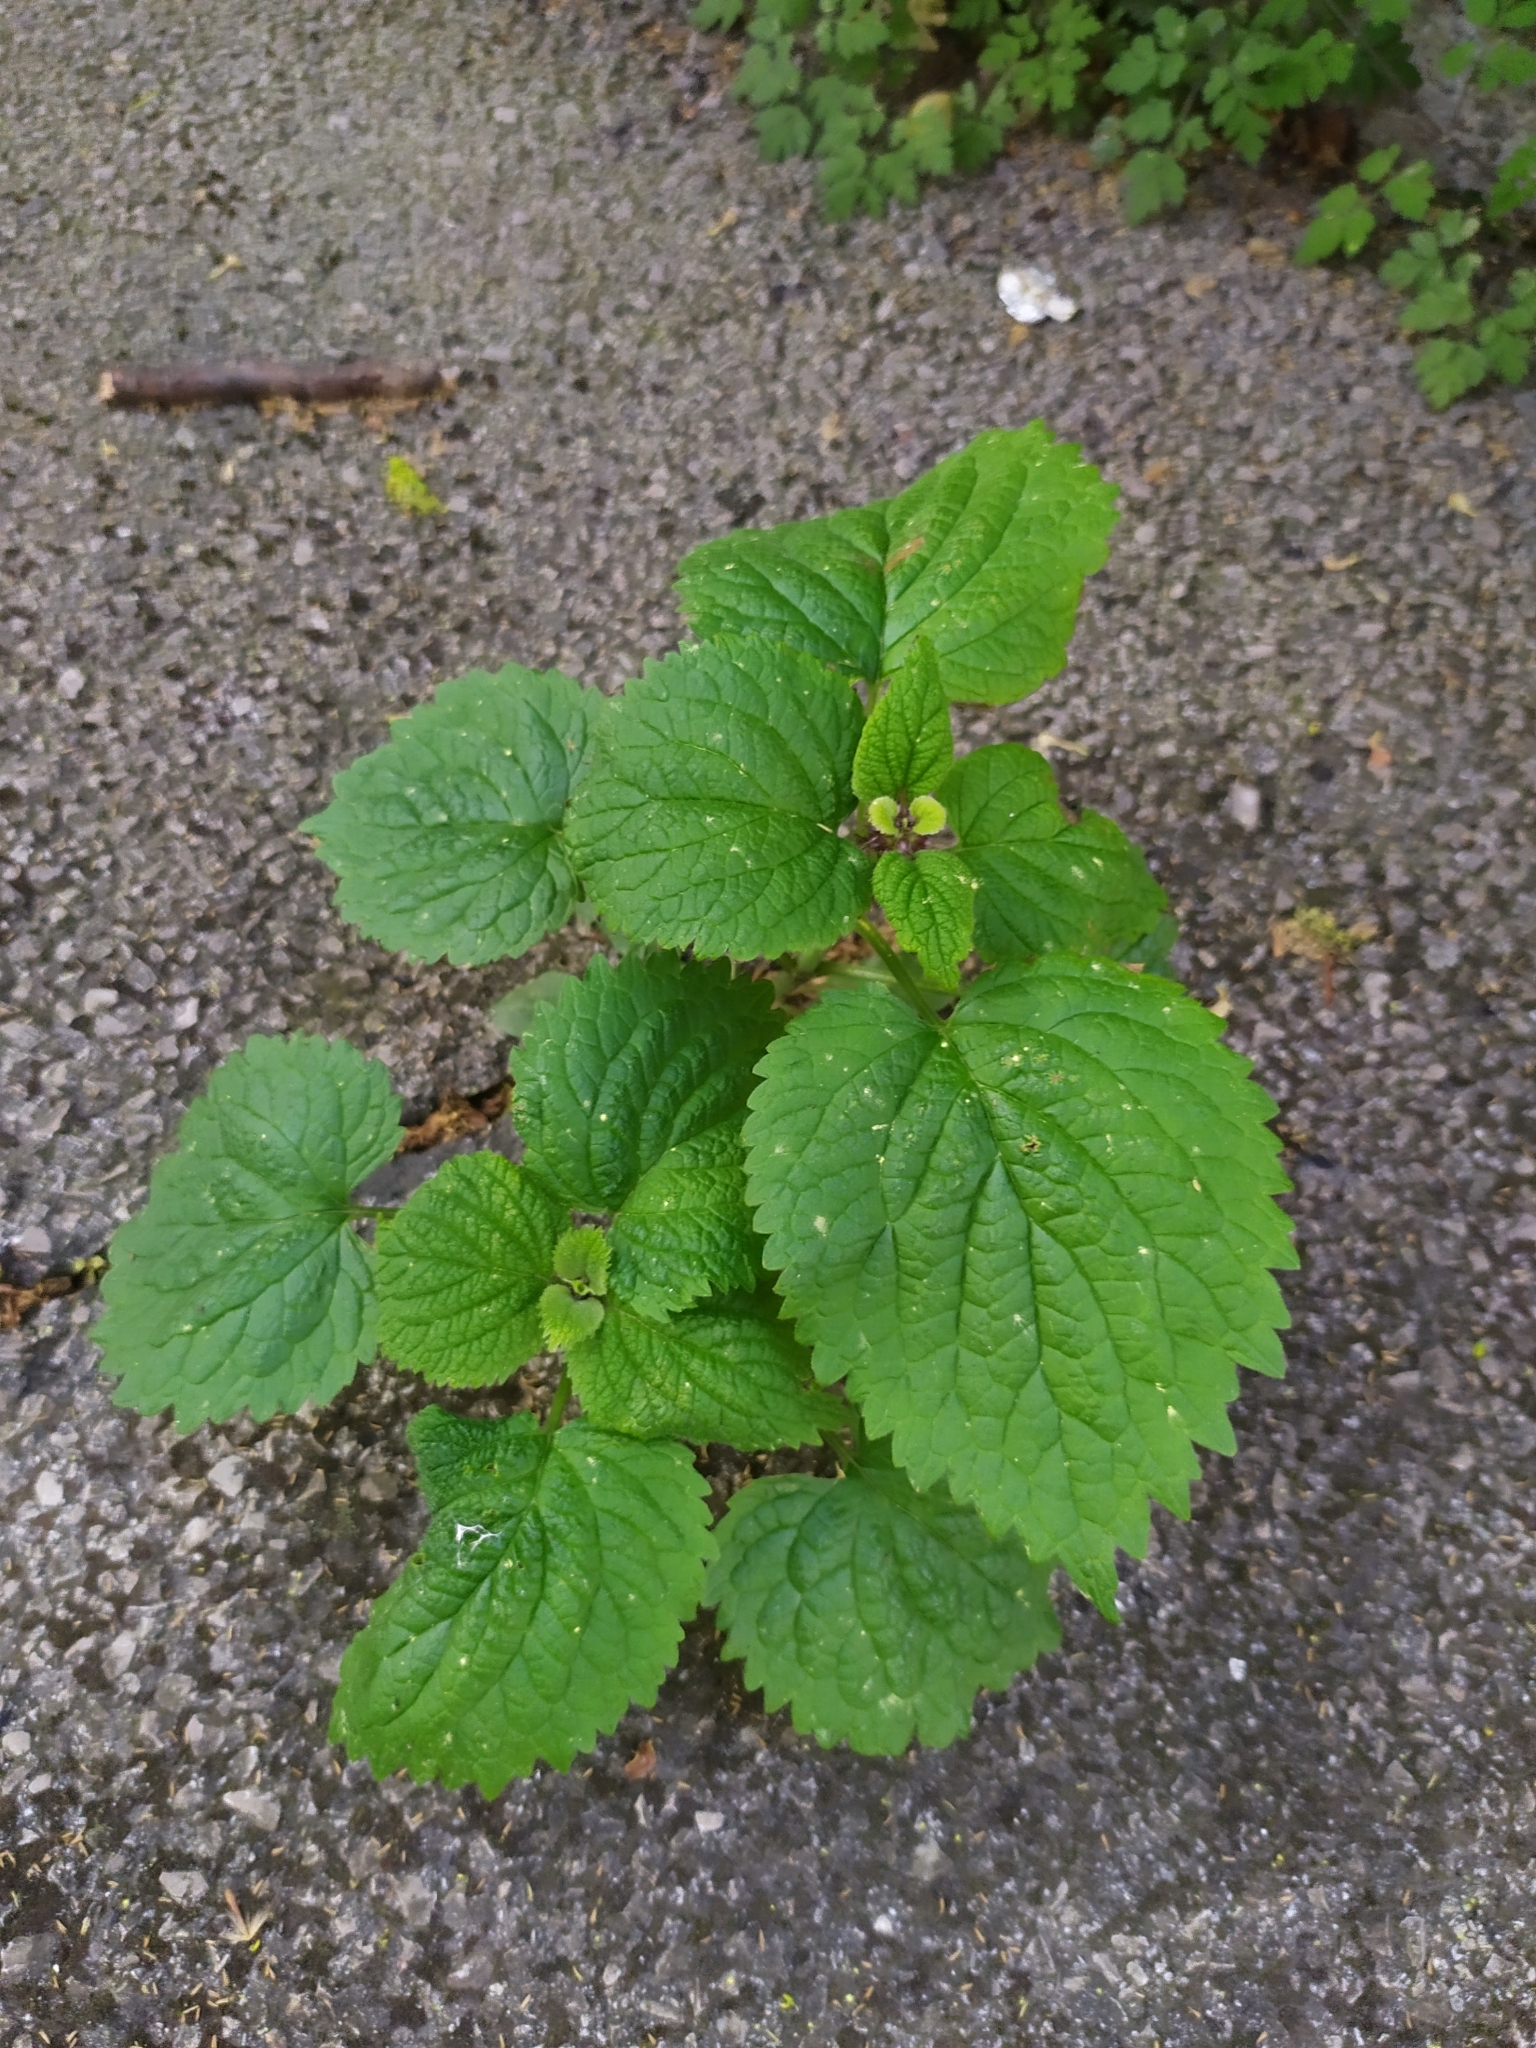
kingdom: Plantae
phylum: Tracheophyta
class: Magnoliopsida
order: Lamiales
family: Lamiaceae
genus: Lamium
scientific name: Lamium orvala
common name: Balm-leaved archangel
